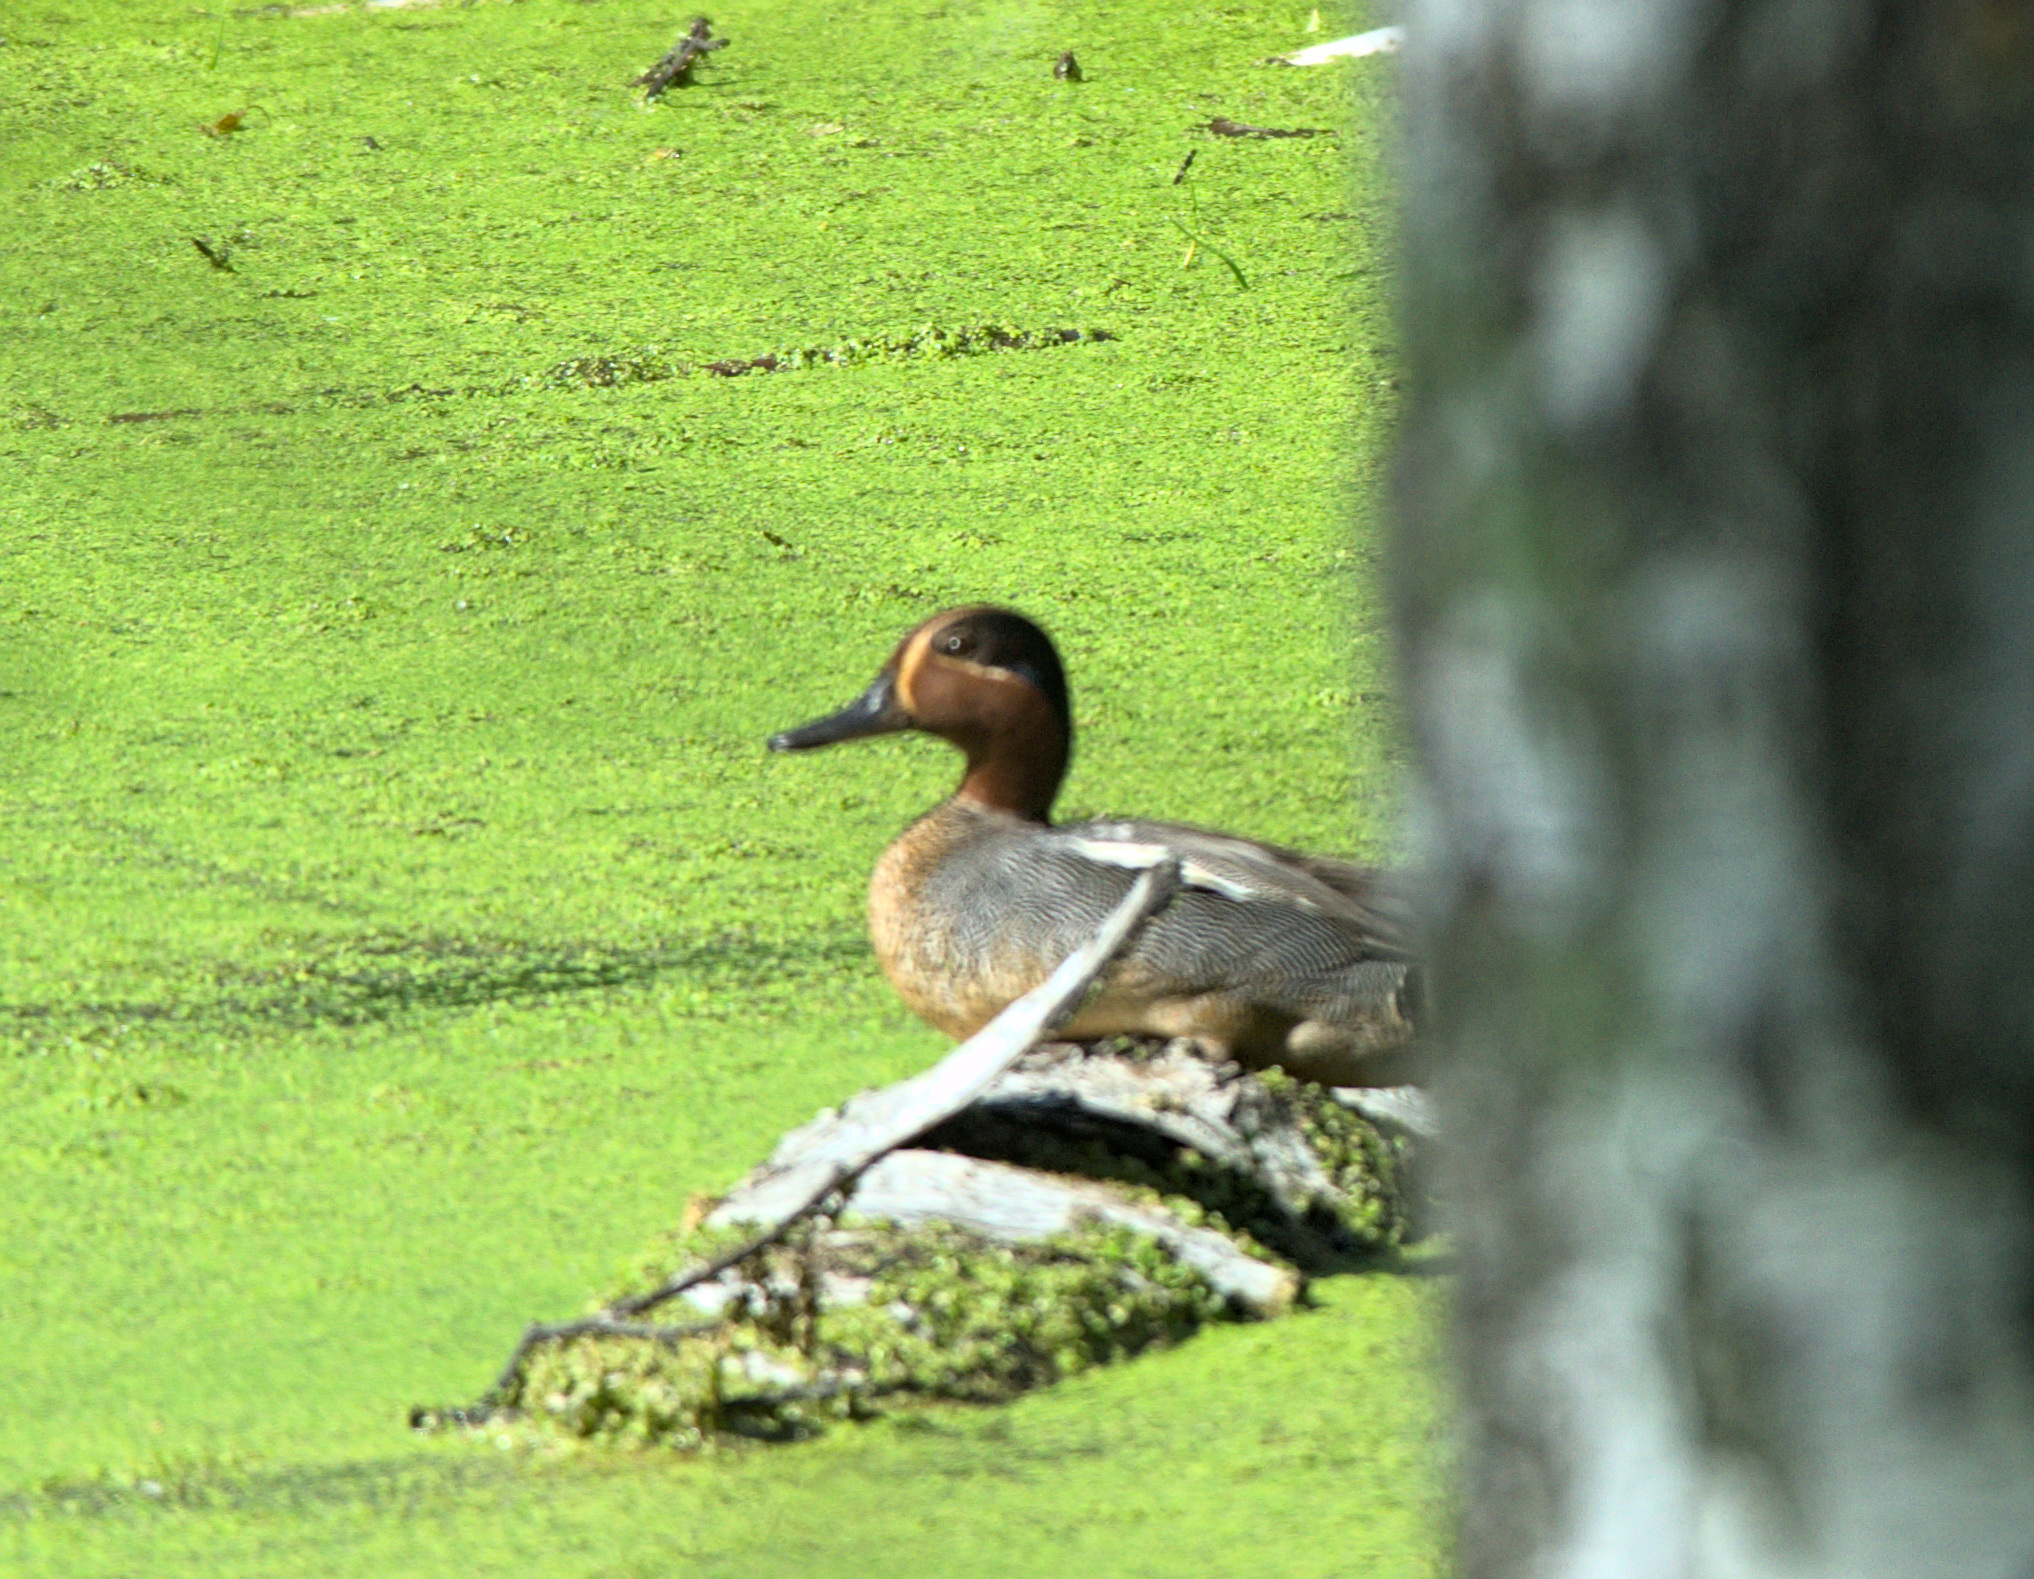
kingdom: Animalia
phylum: Chordata
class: Aves
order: Anseriformes
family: Anatidae
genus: Anas
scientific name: Anas crecca
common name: Eurasian teal
